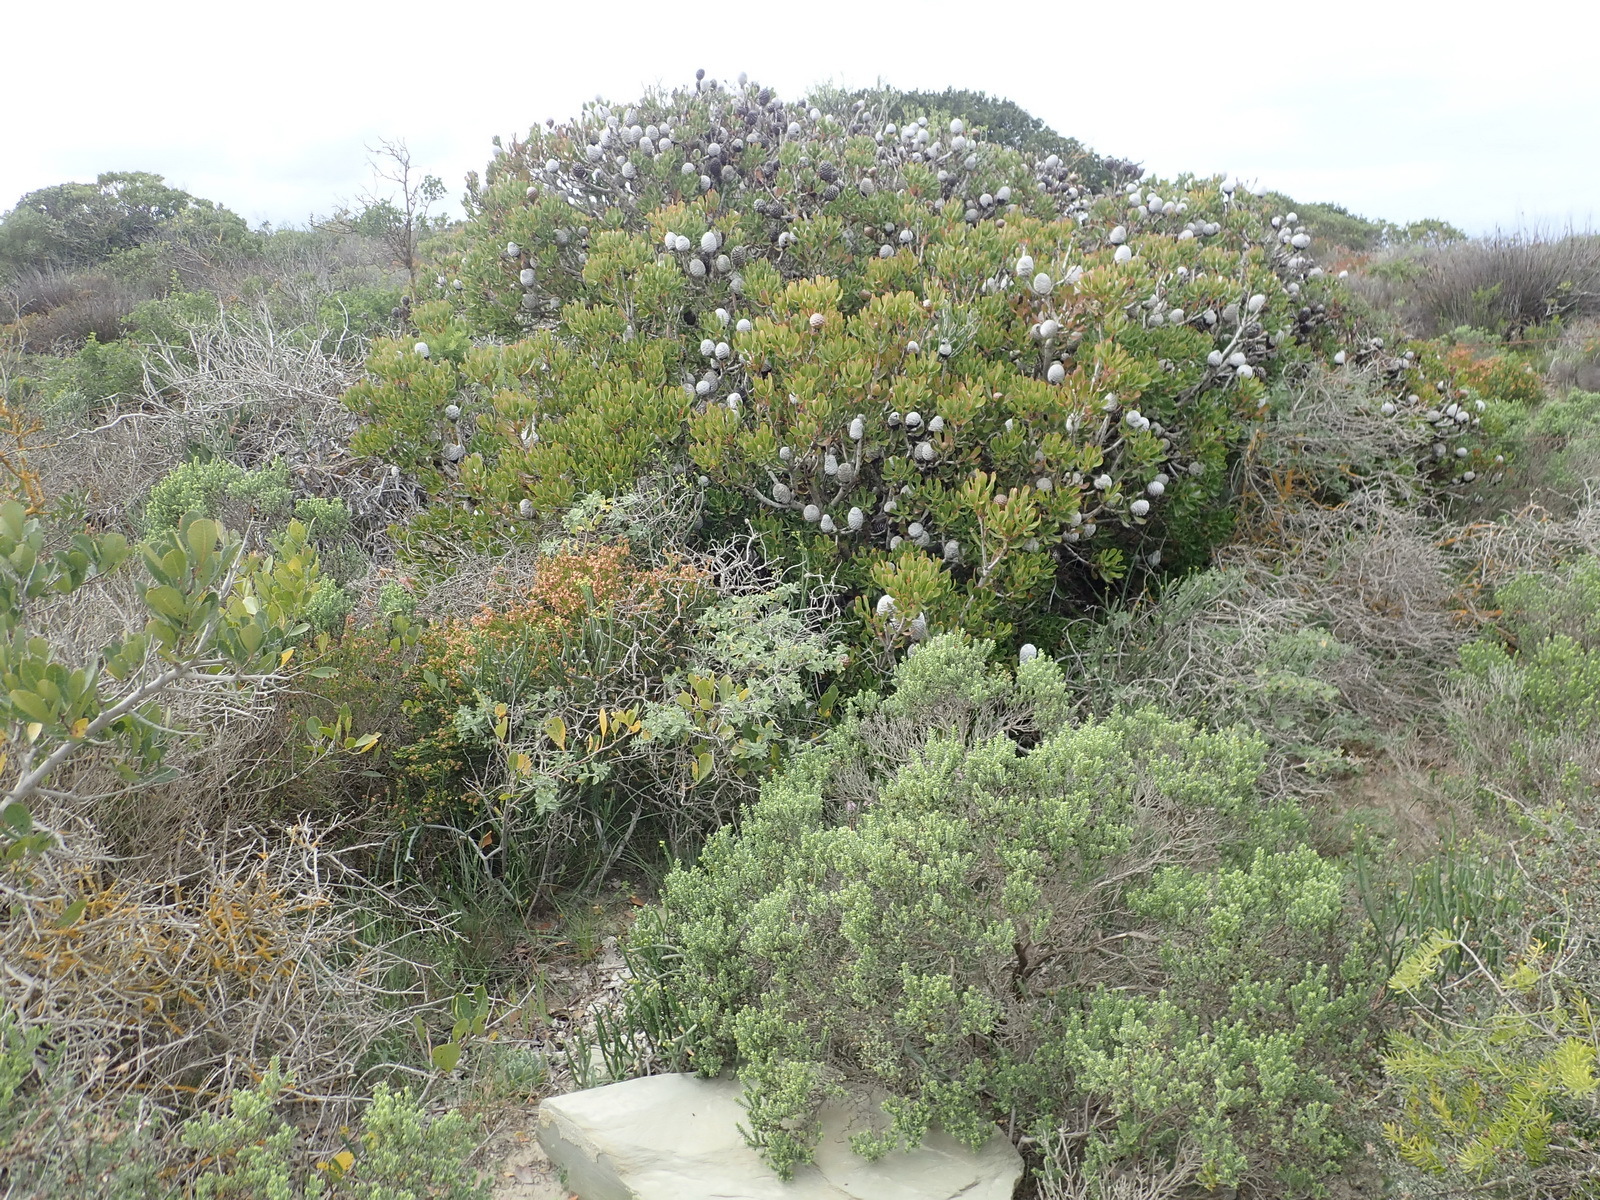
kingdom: Plantae
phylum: Tracheophyta
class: Magnoliopsida
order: Proteales
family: Proteaceae
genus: Leucadendron
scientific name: Leucadendron muirii
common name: Silver-ball conebush
